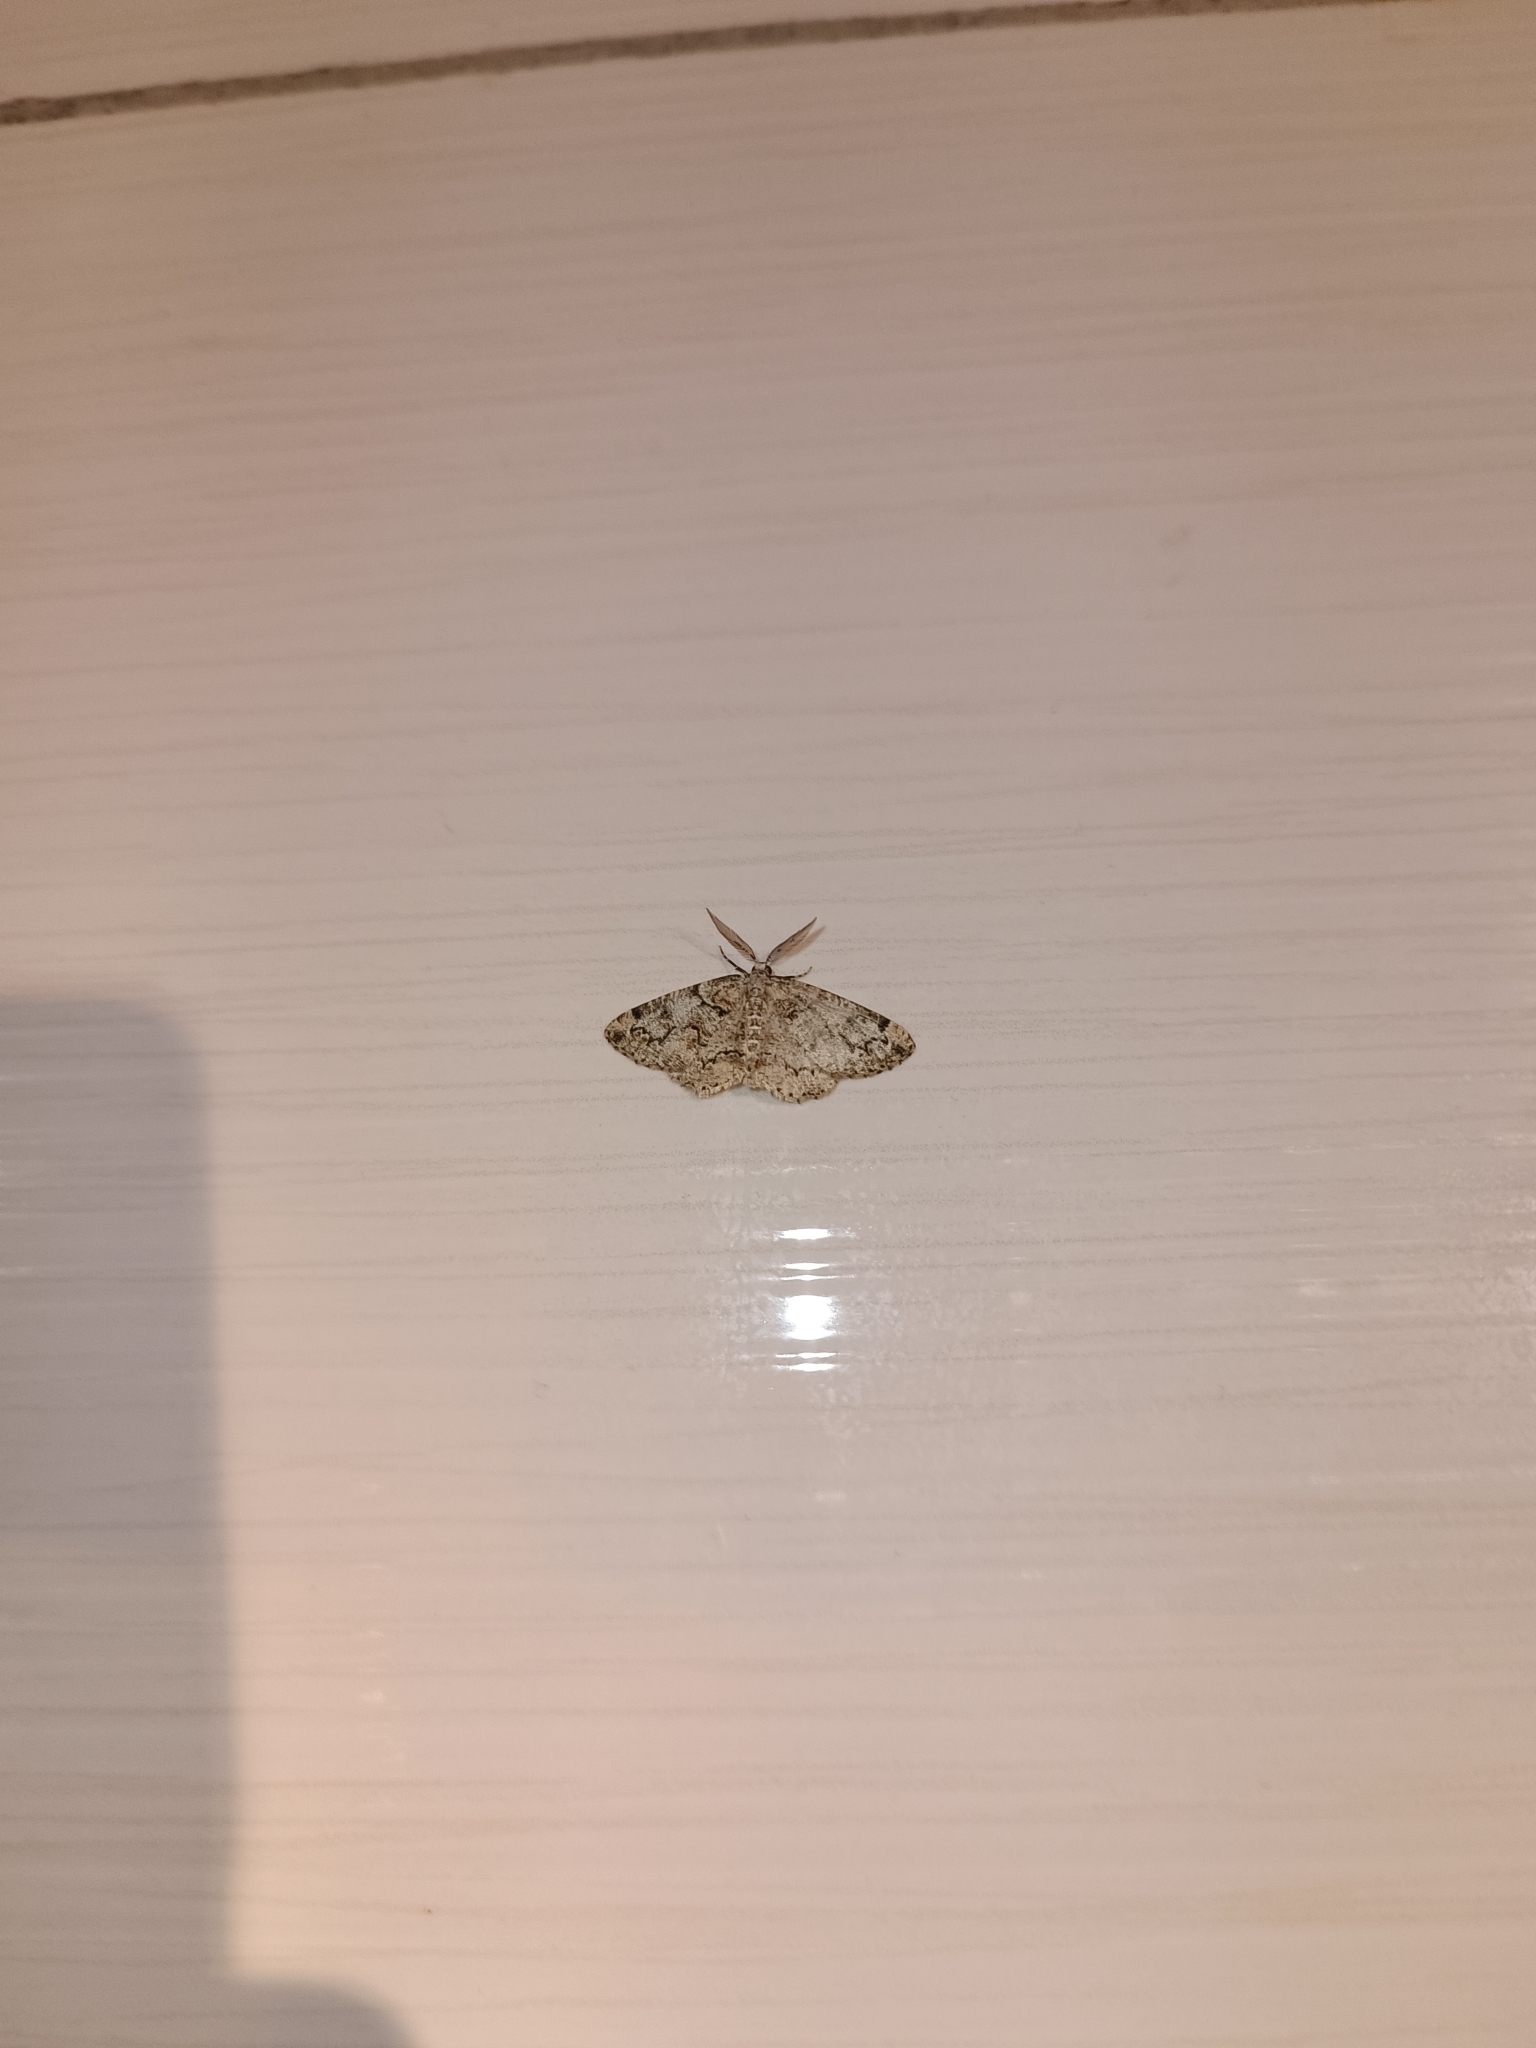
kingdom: Animalia
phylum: Arthropoda
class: Insecta
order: Lepidoptera
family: Geometridae
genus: Cleorodes
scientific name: Cleorodes lichenaria
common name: Brussels lace
